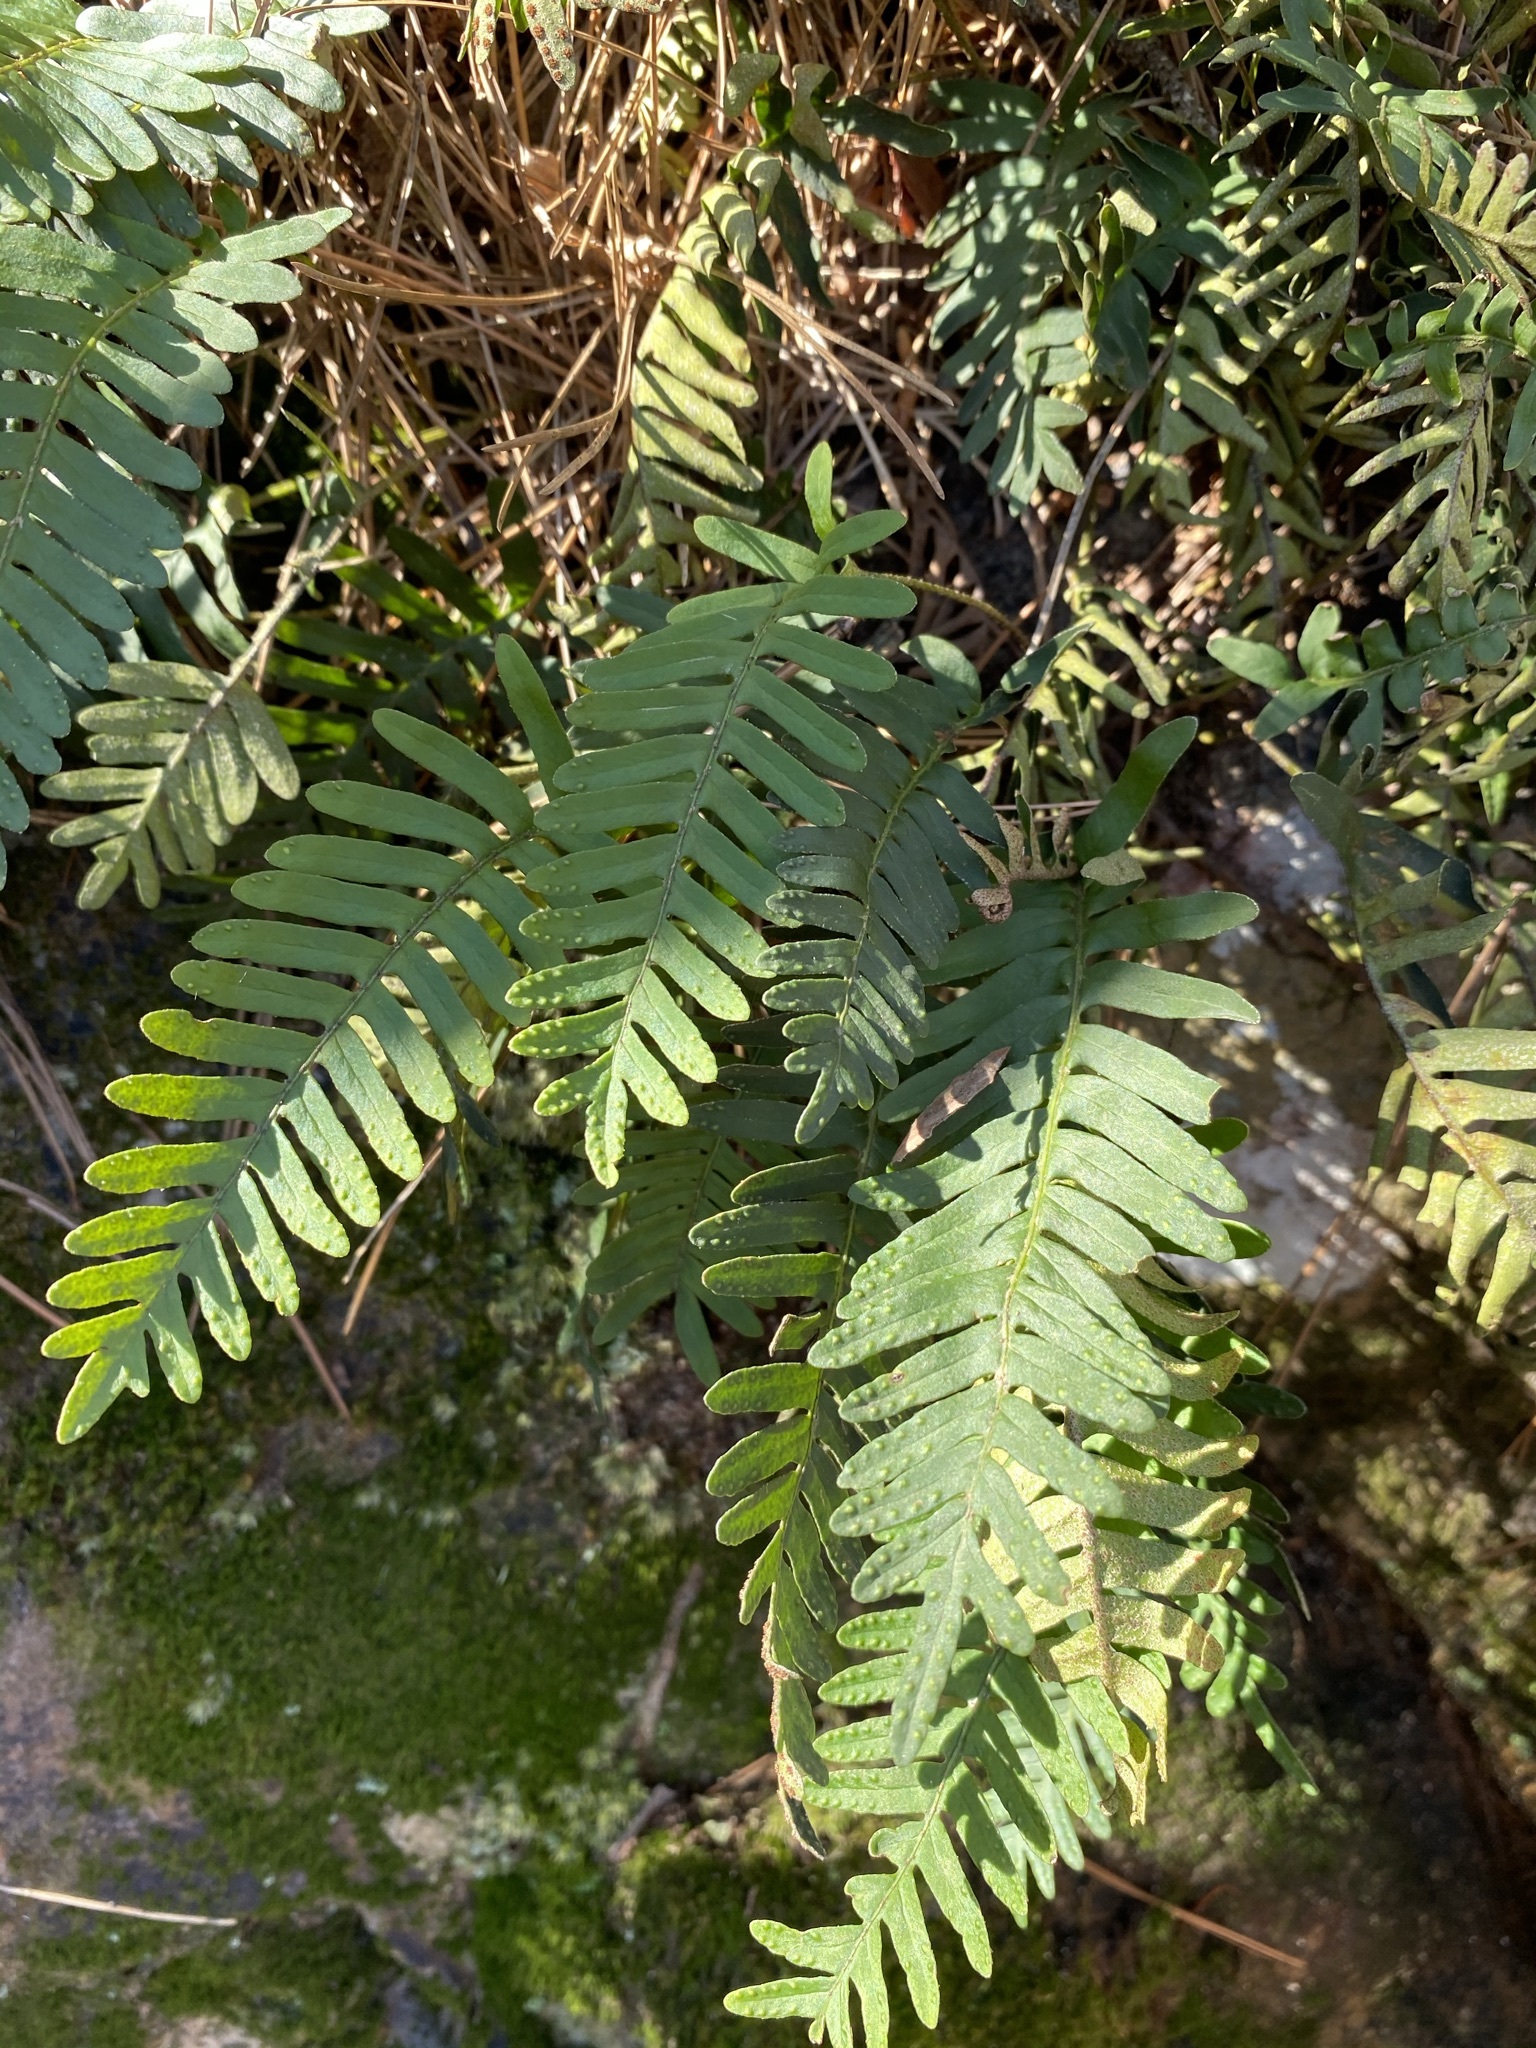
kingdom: Plantae
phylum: Tracheophyta
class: Polypodiopsida
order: Polypodiales
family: Polypodiaceae
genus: Pleopeltis
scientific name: Pleopeltis michauxiana
